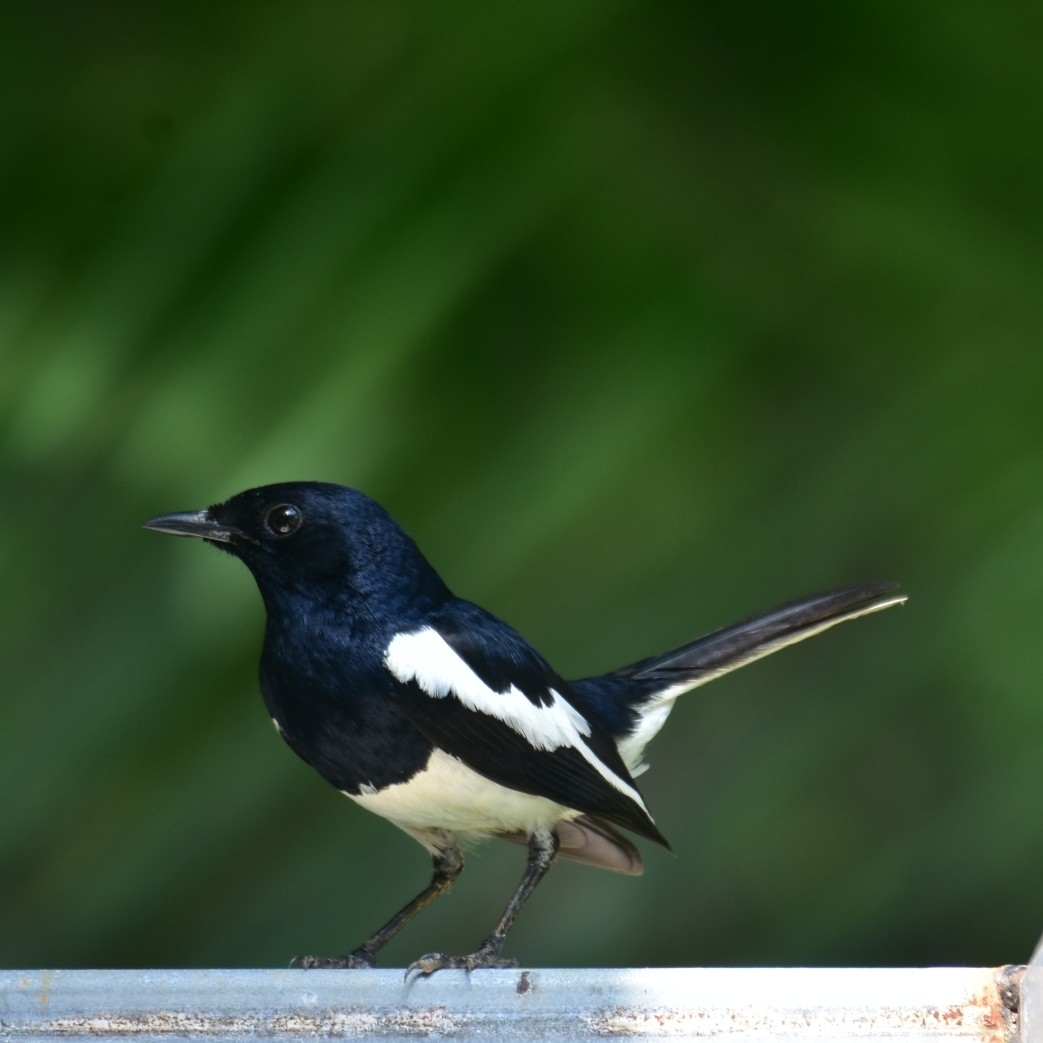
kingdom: Animalia
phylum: Chordata
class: Aves
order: Passeriformes
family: Muscicapidae
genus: Copsychus
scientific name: Copsychus saularis
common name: Oriental magpie-robin
